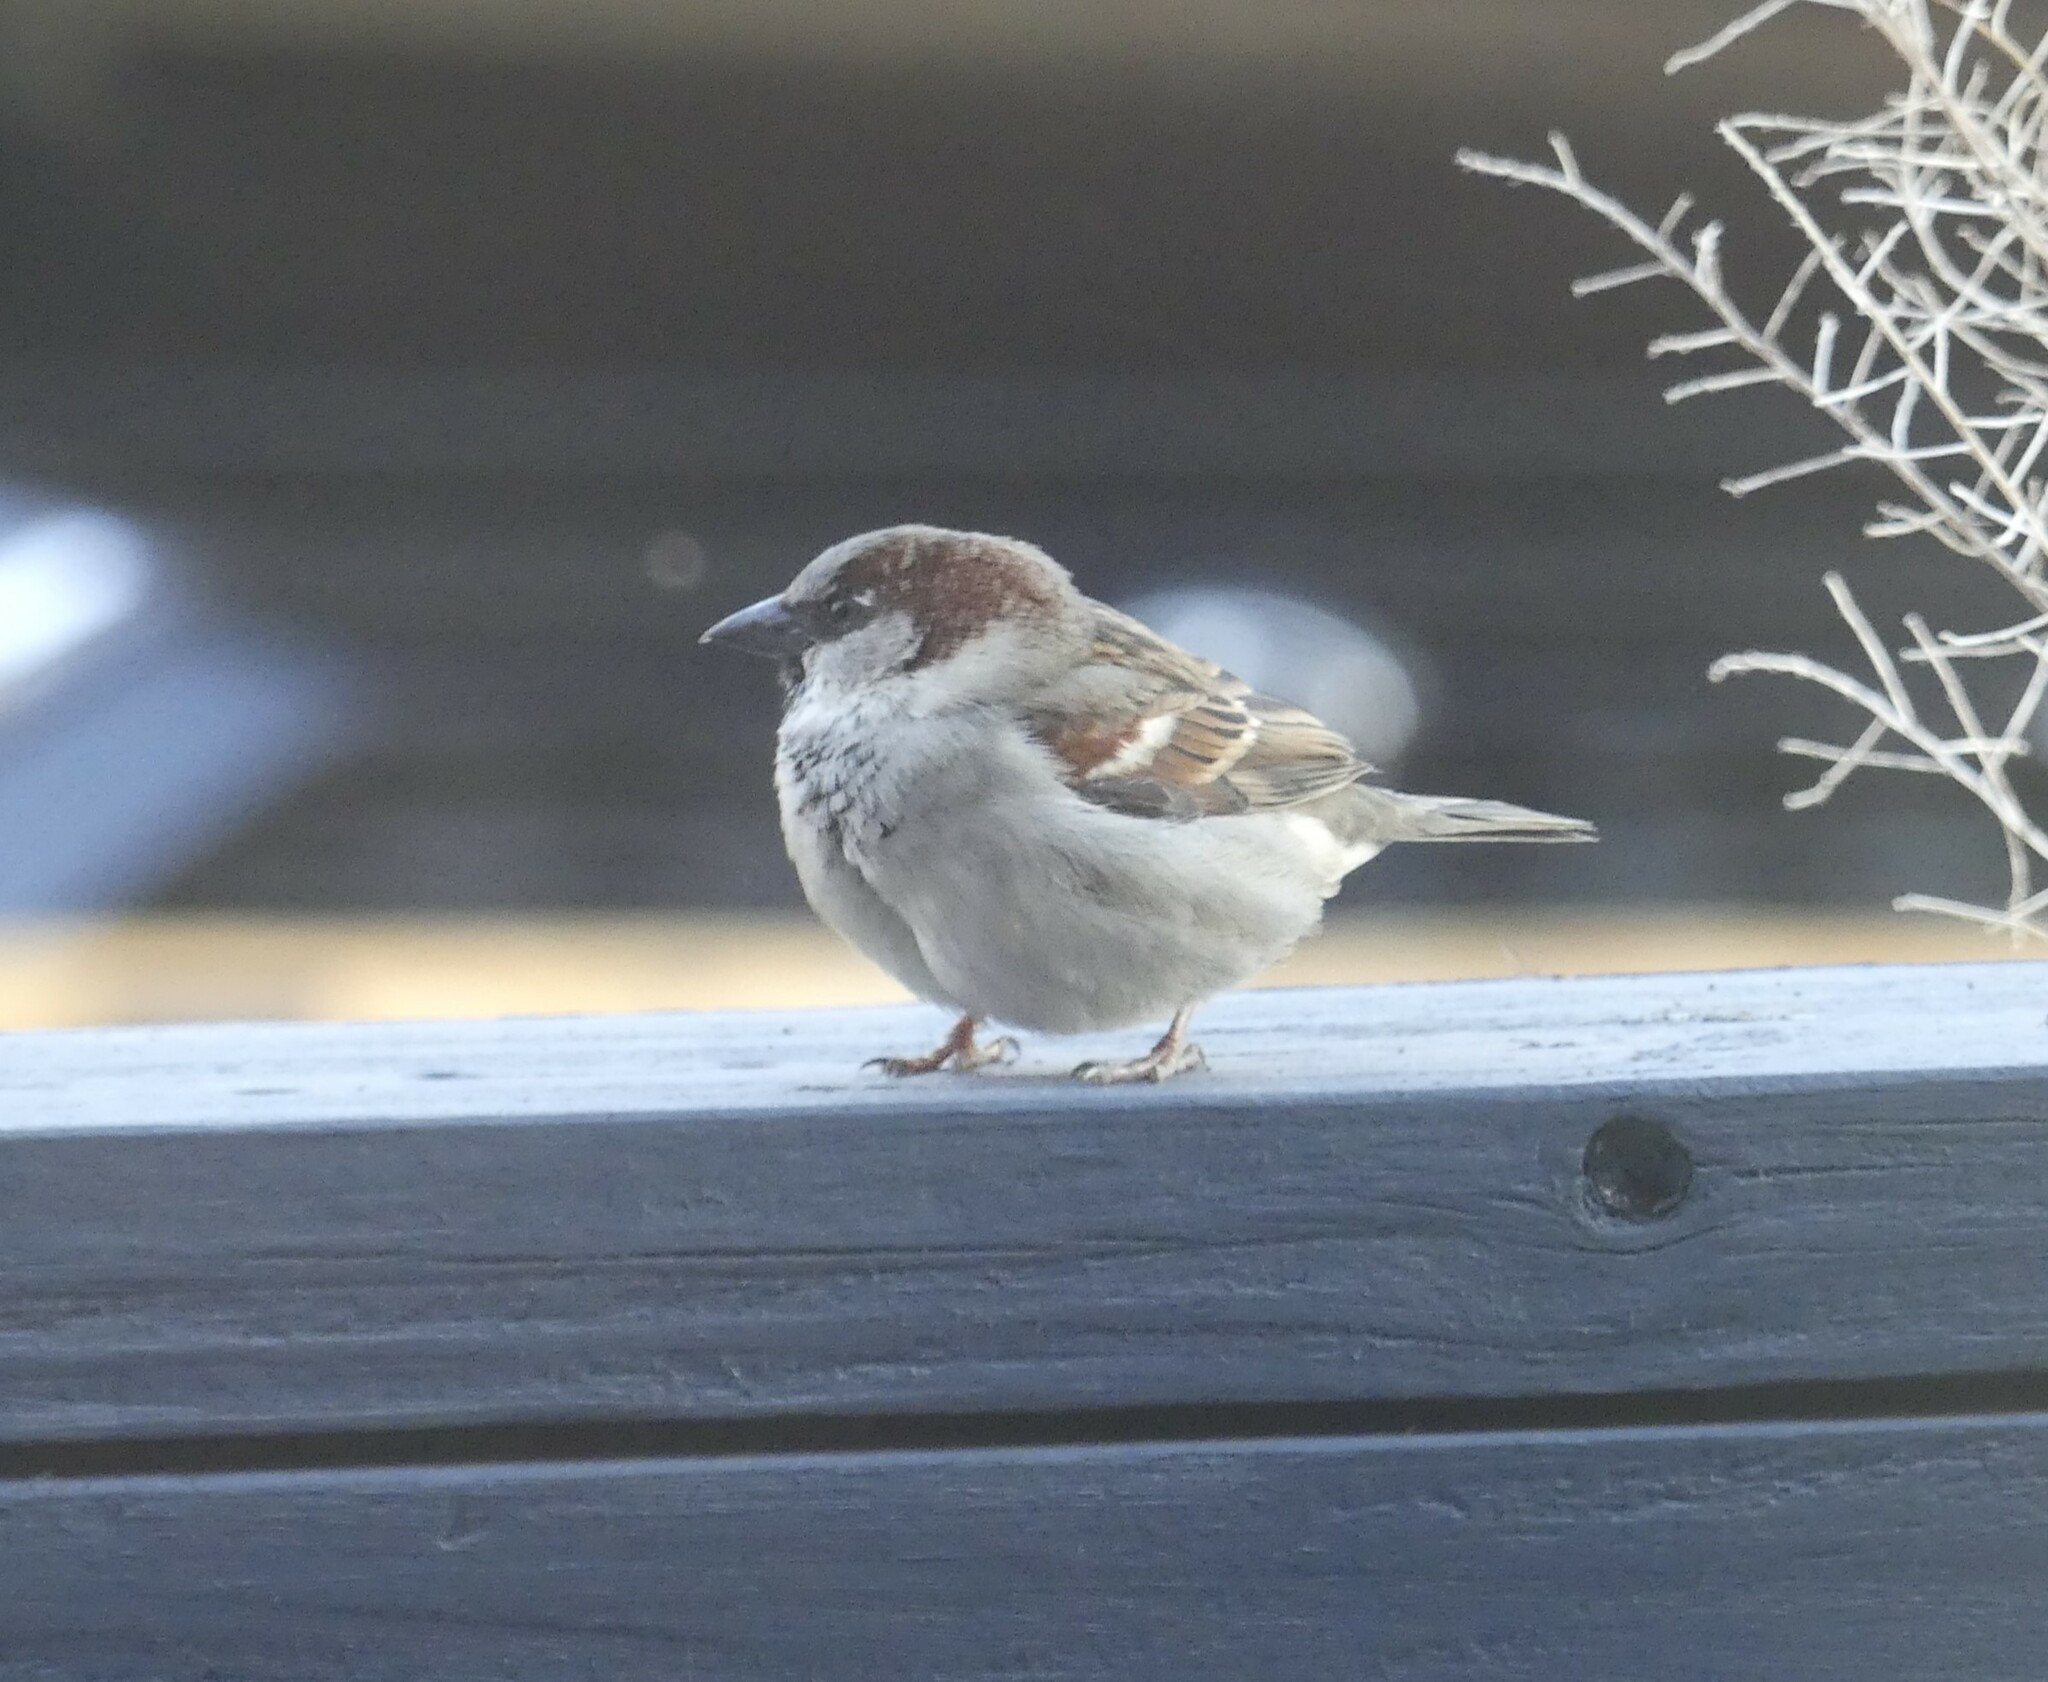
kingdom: Animalia
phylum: Chordata
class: Aves
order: Passeriformes
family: Passeridae
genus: Passer
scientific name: Passer domesticus
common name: House sparrow
